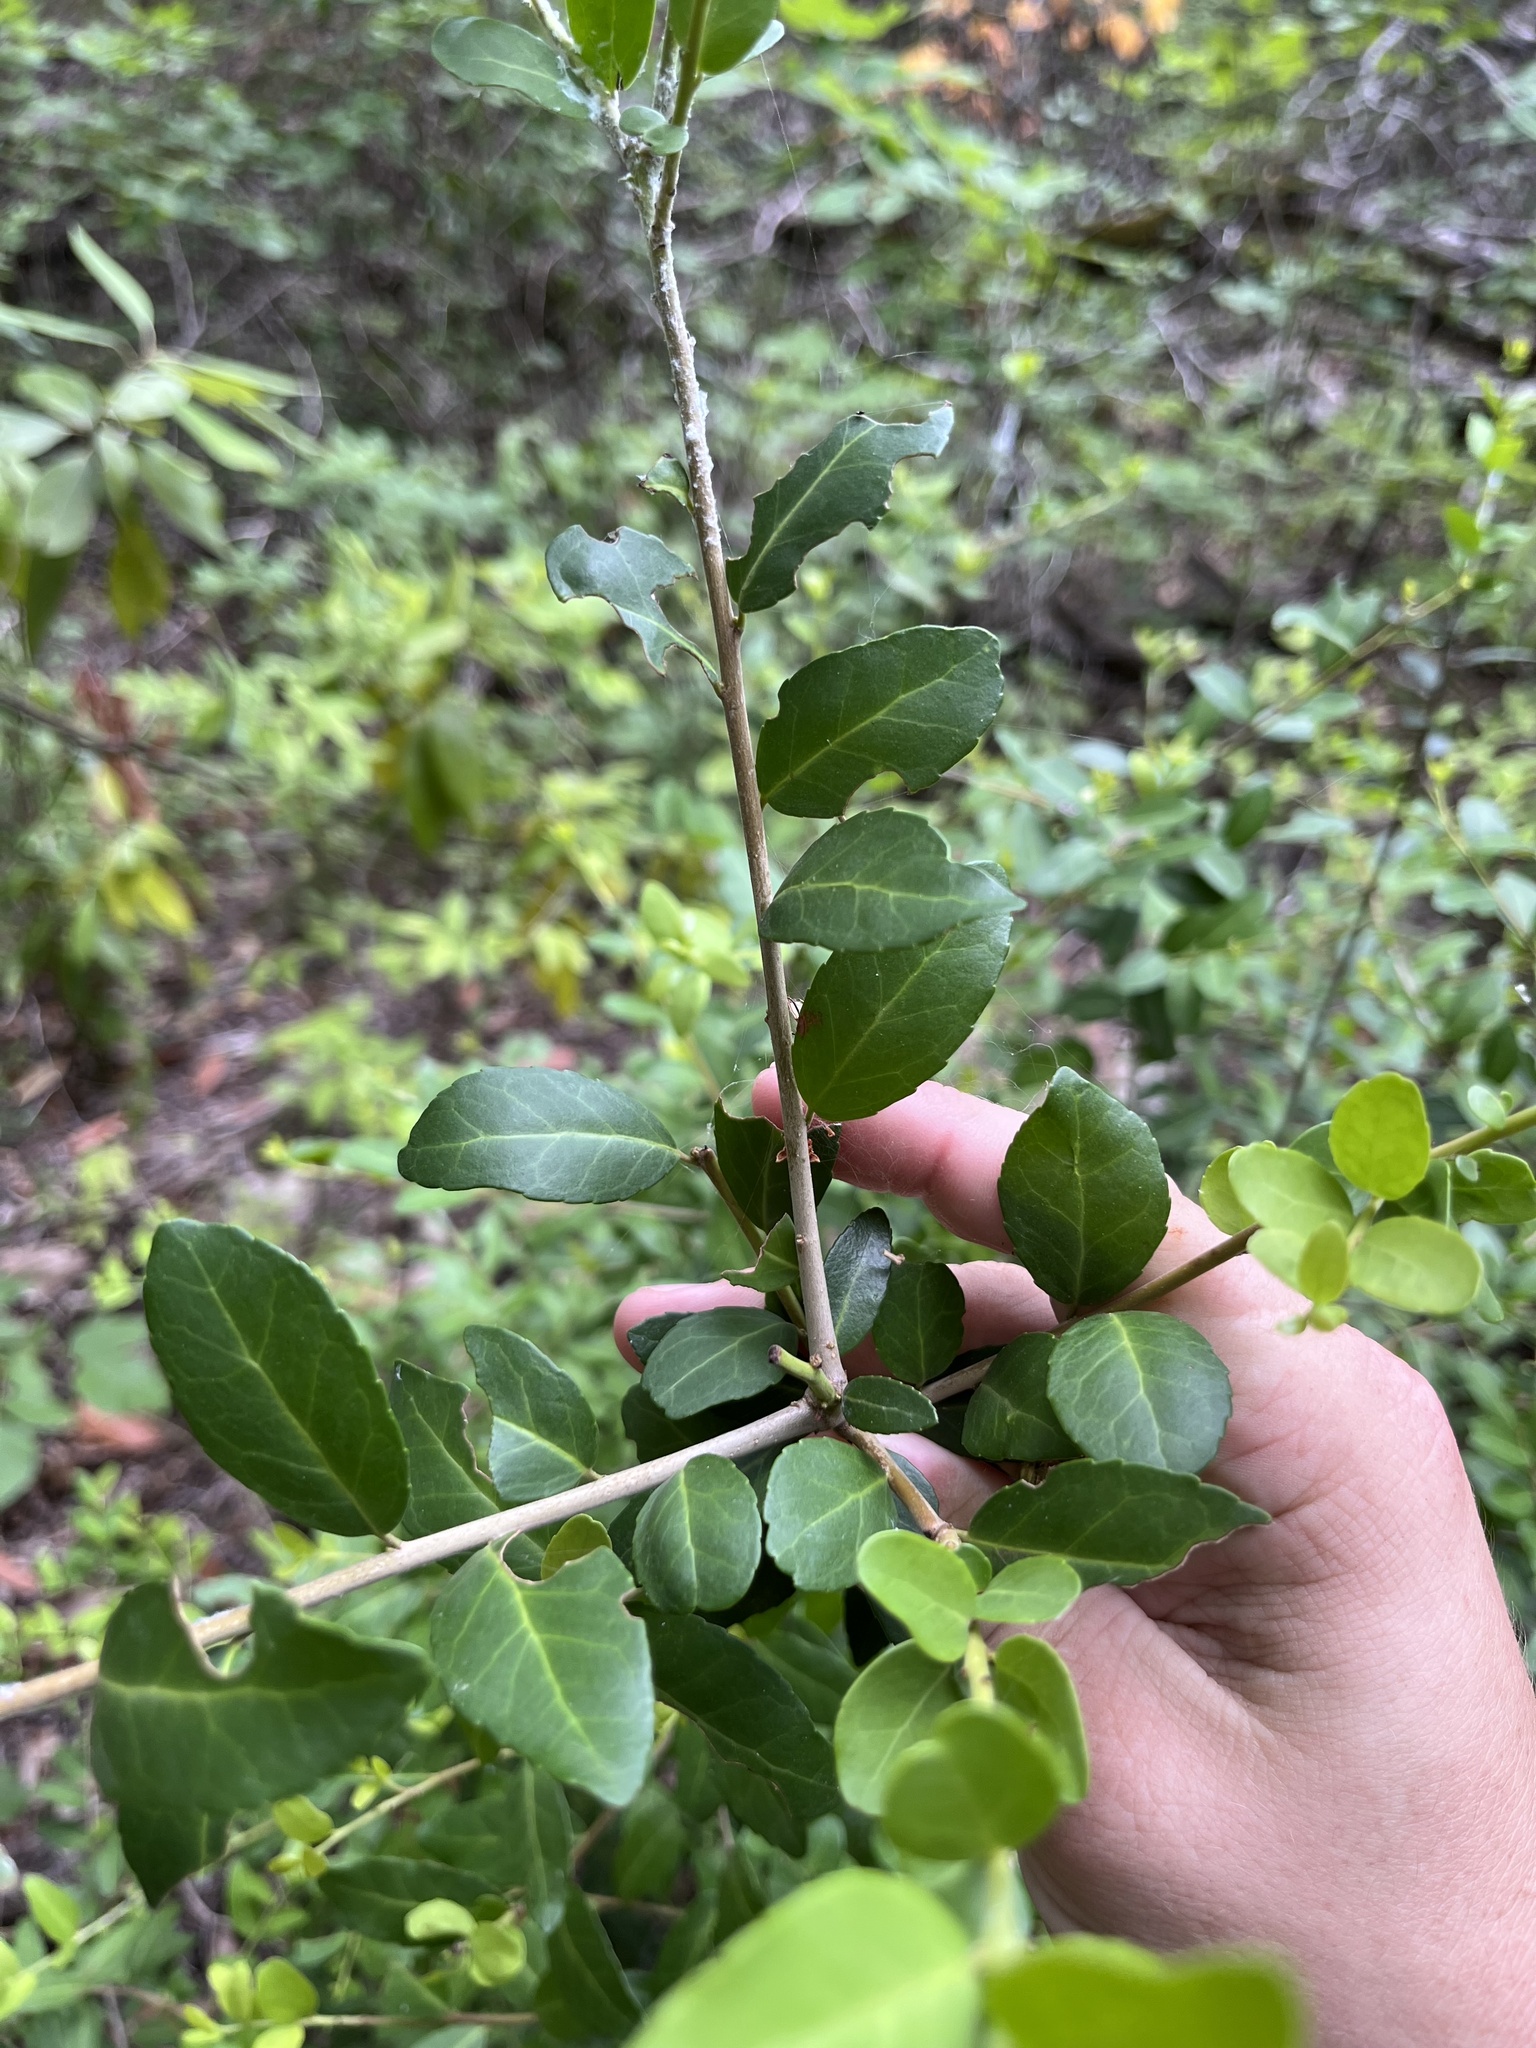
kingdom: Plantae
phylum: Tracheophyta
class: Magnoliopsida
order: Aquifoliales
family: Aquifoliaceae
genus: Ilex
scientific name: Ilex vomitoria
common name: Yaupon holly
